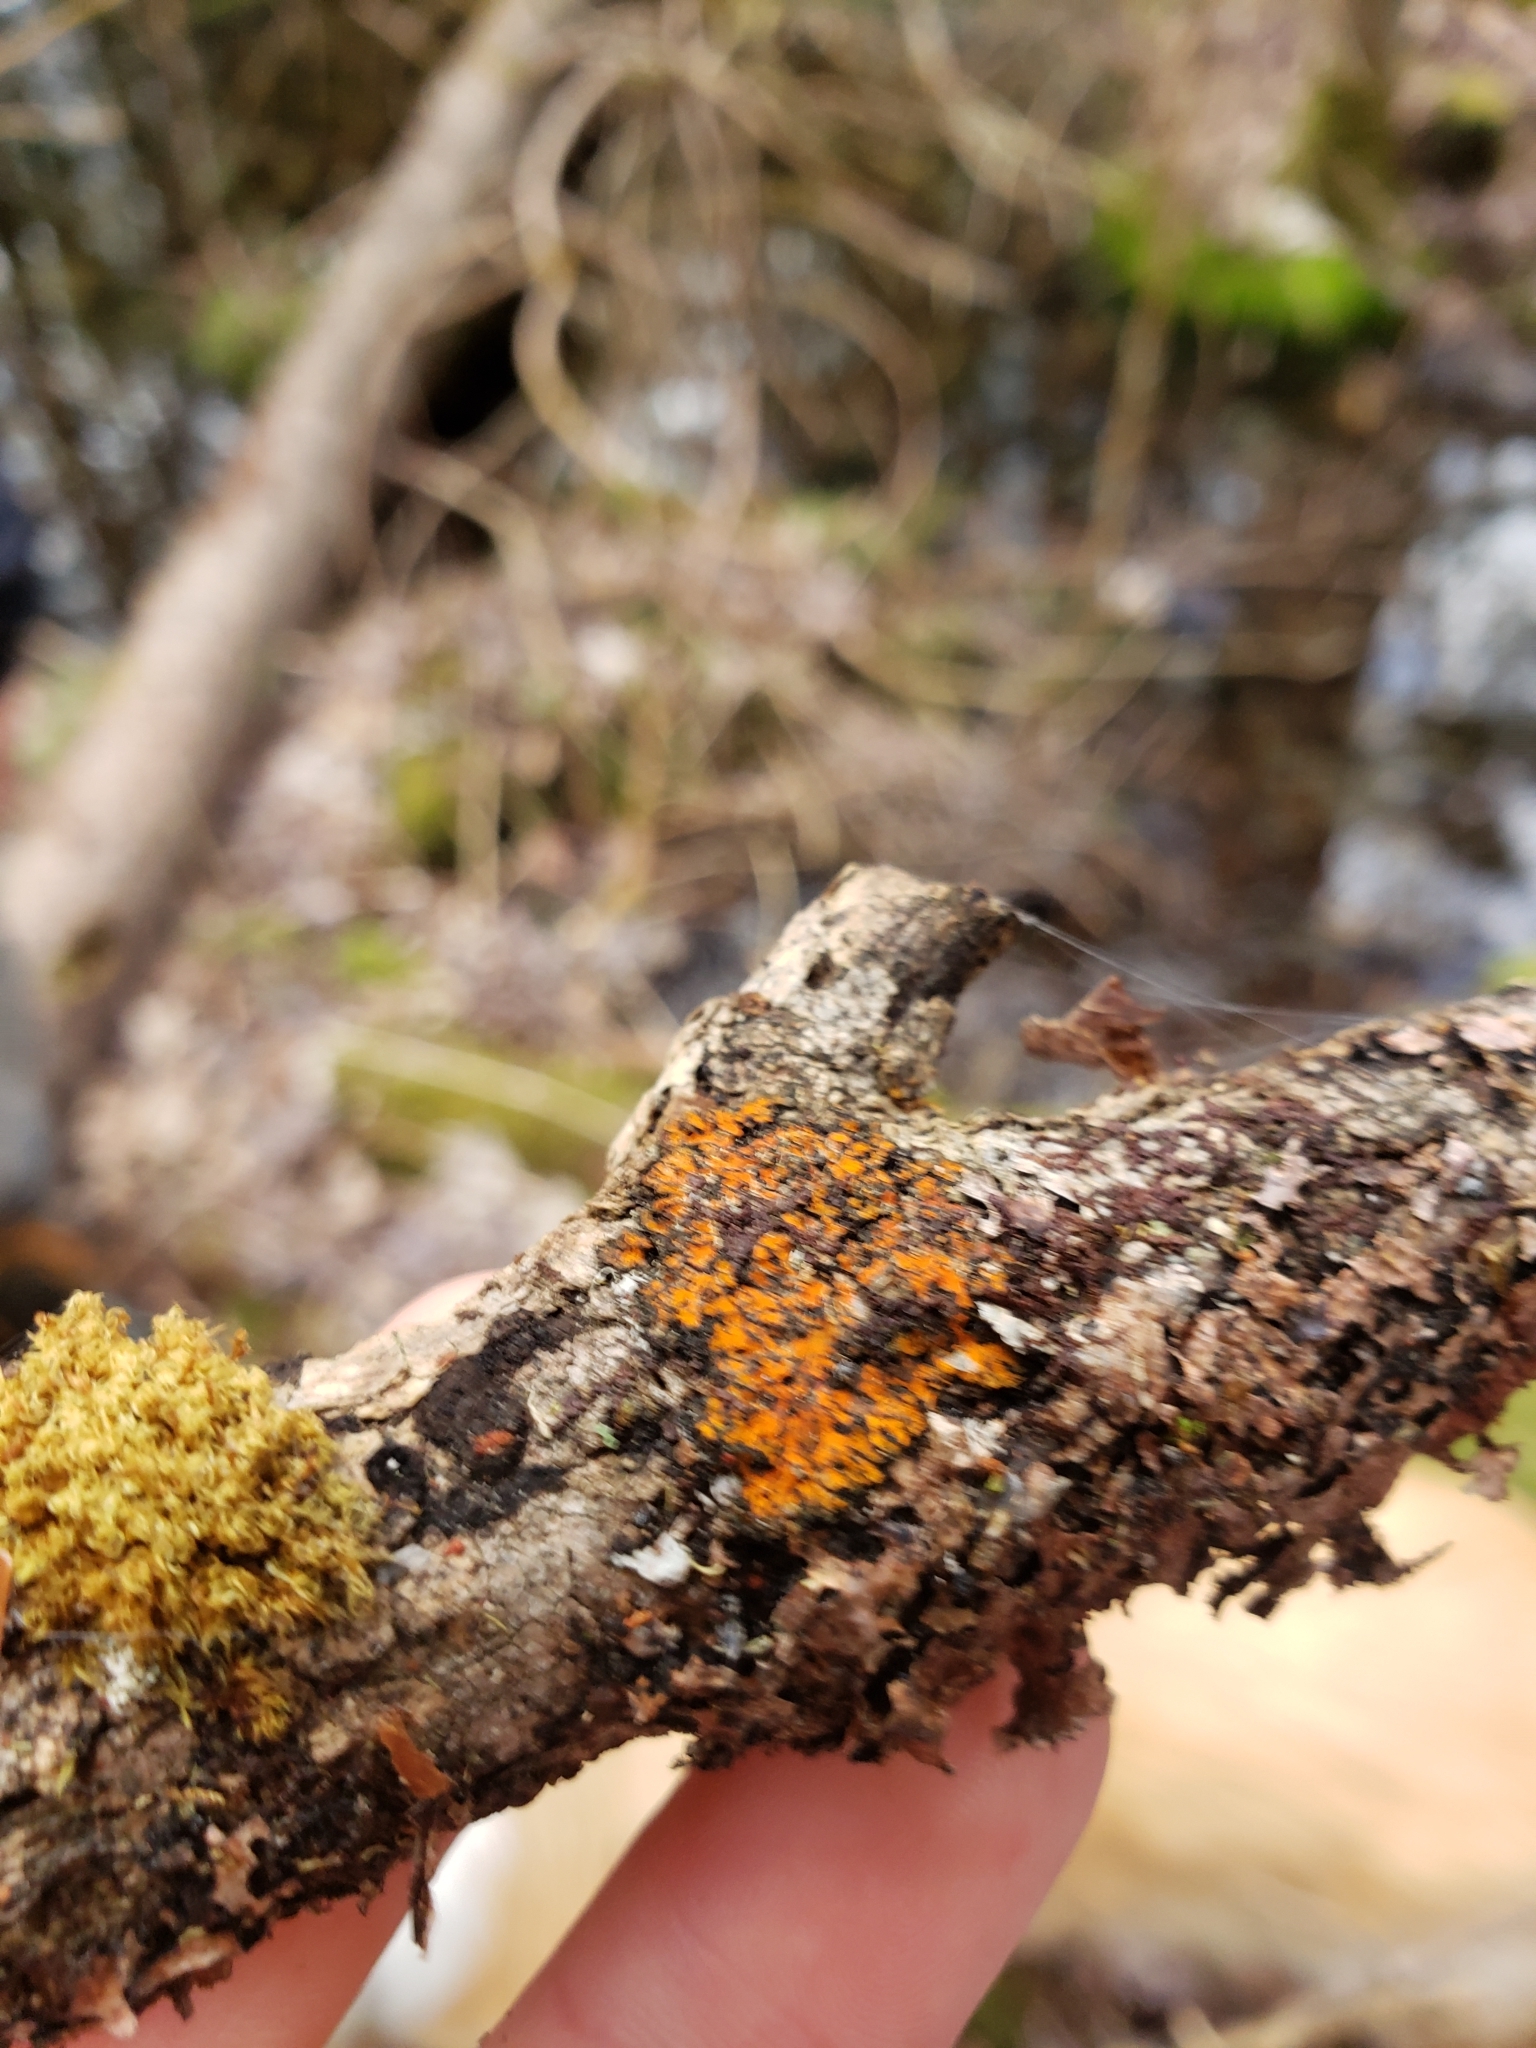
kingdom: Fungi
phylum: Ascomycota
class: Lecanoromycetes
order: Caliciales
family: Physciaceae
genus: Phaeophyscia
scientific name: Phaeophyscia rubropulchra
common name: Orange-cored shadow lichen
